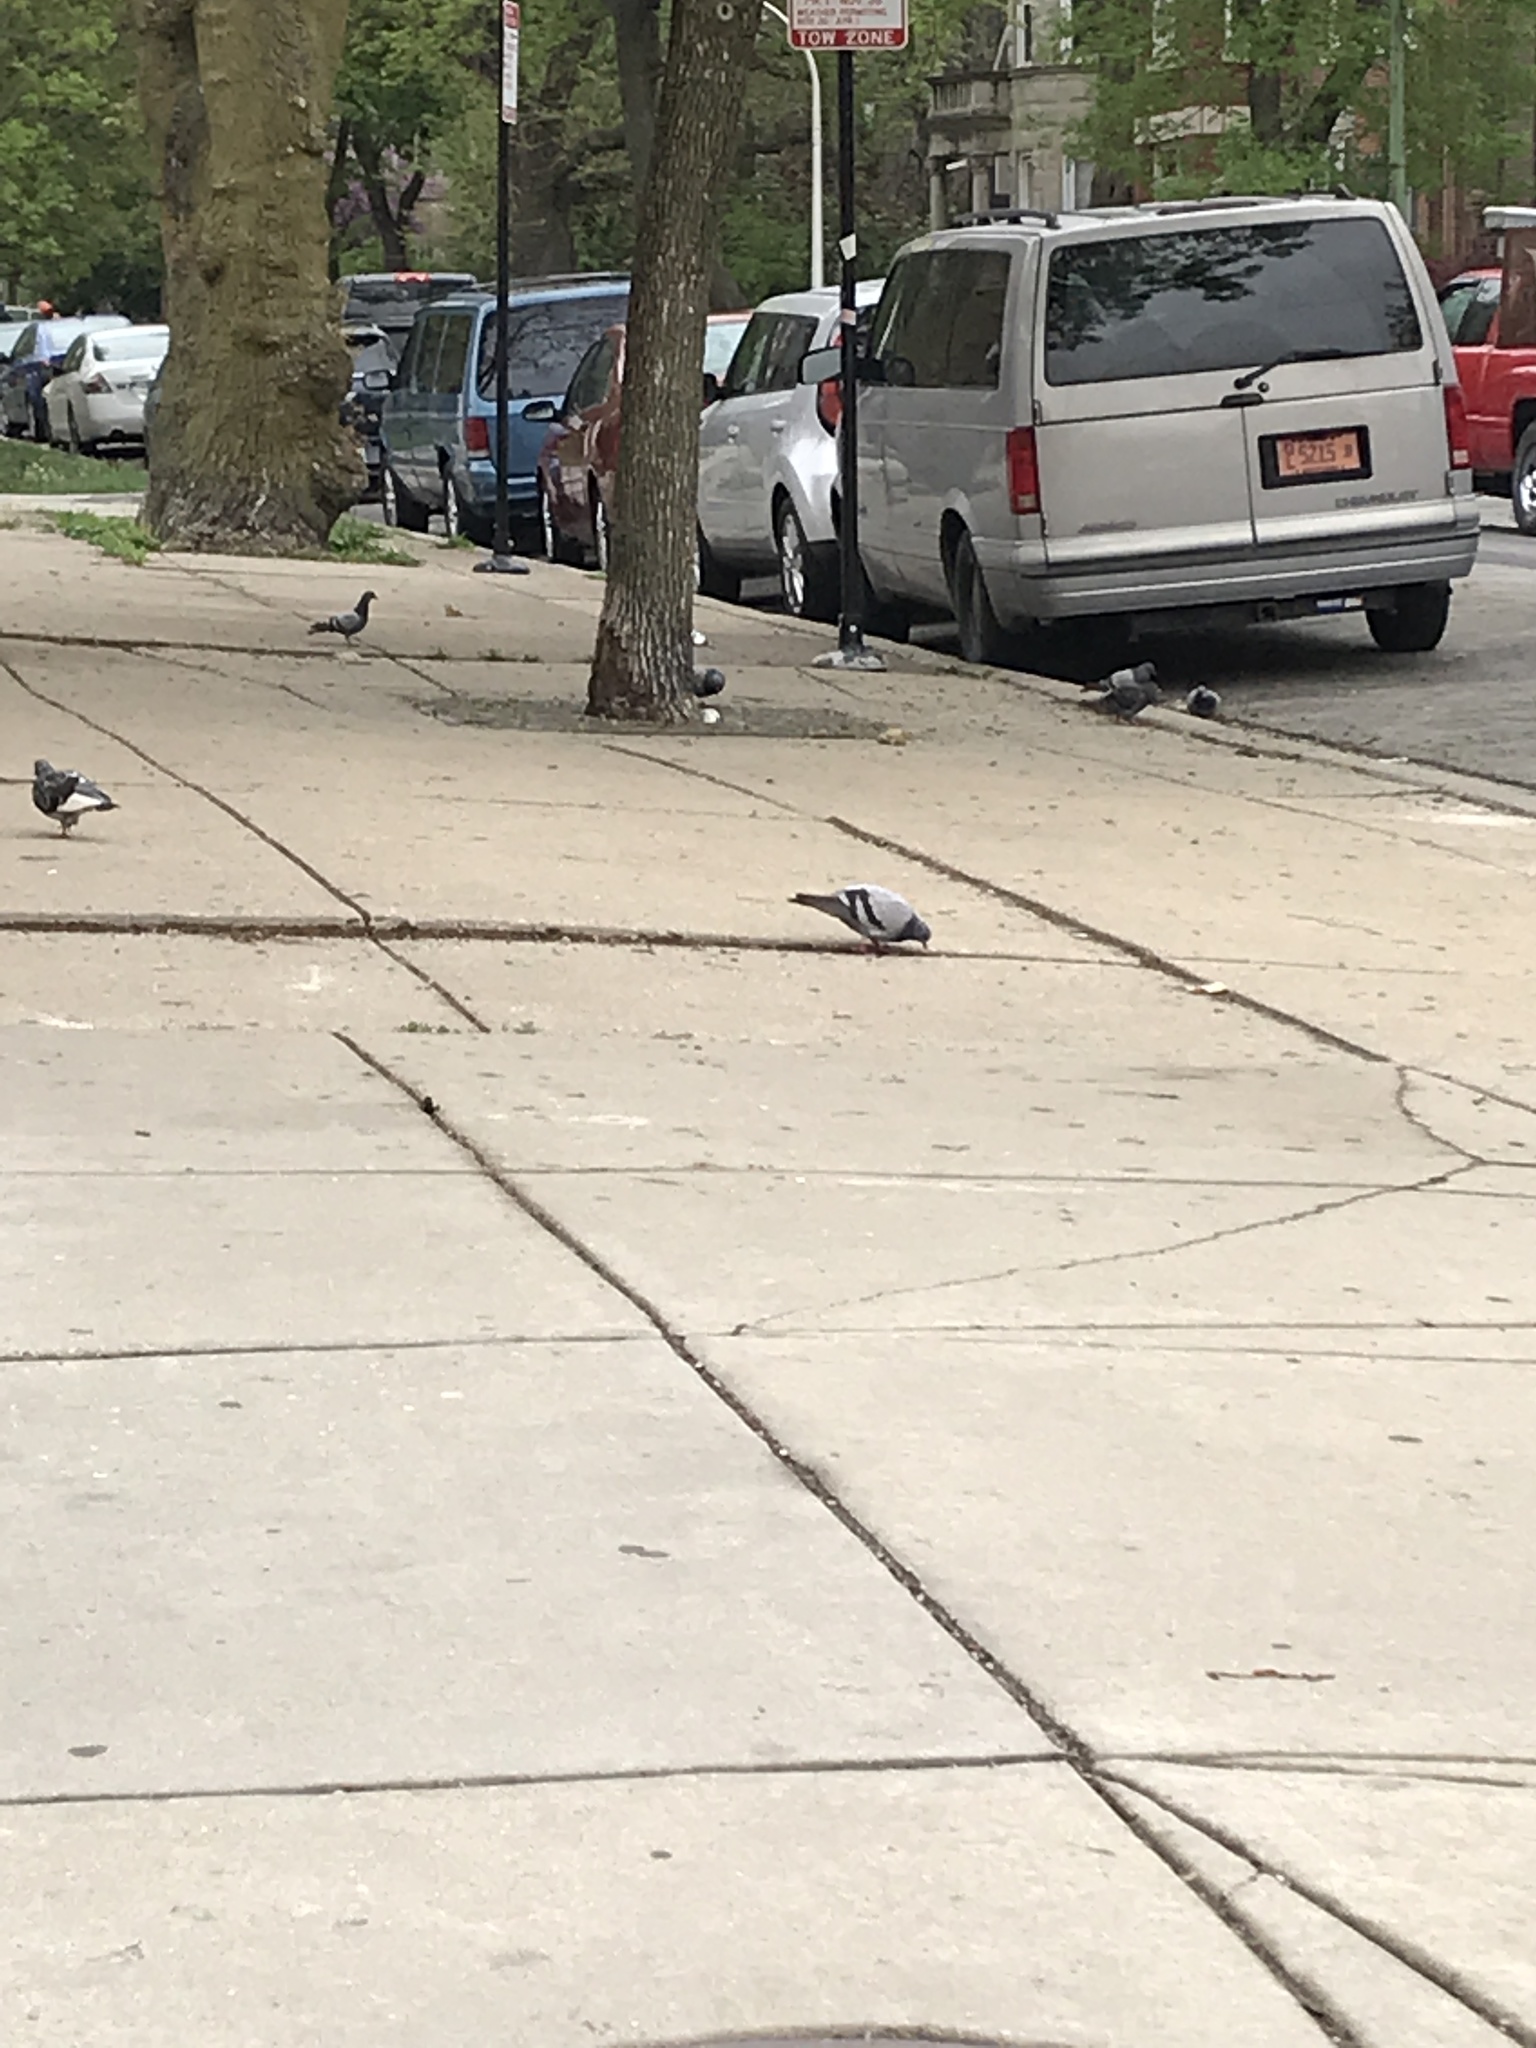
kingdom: Animalia
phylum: Chordata
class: Aves
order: Columbiformes
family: Columbidae
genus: Columba
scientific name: Columba livia
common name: Rock pigeon
